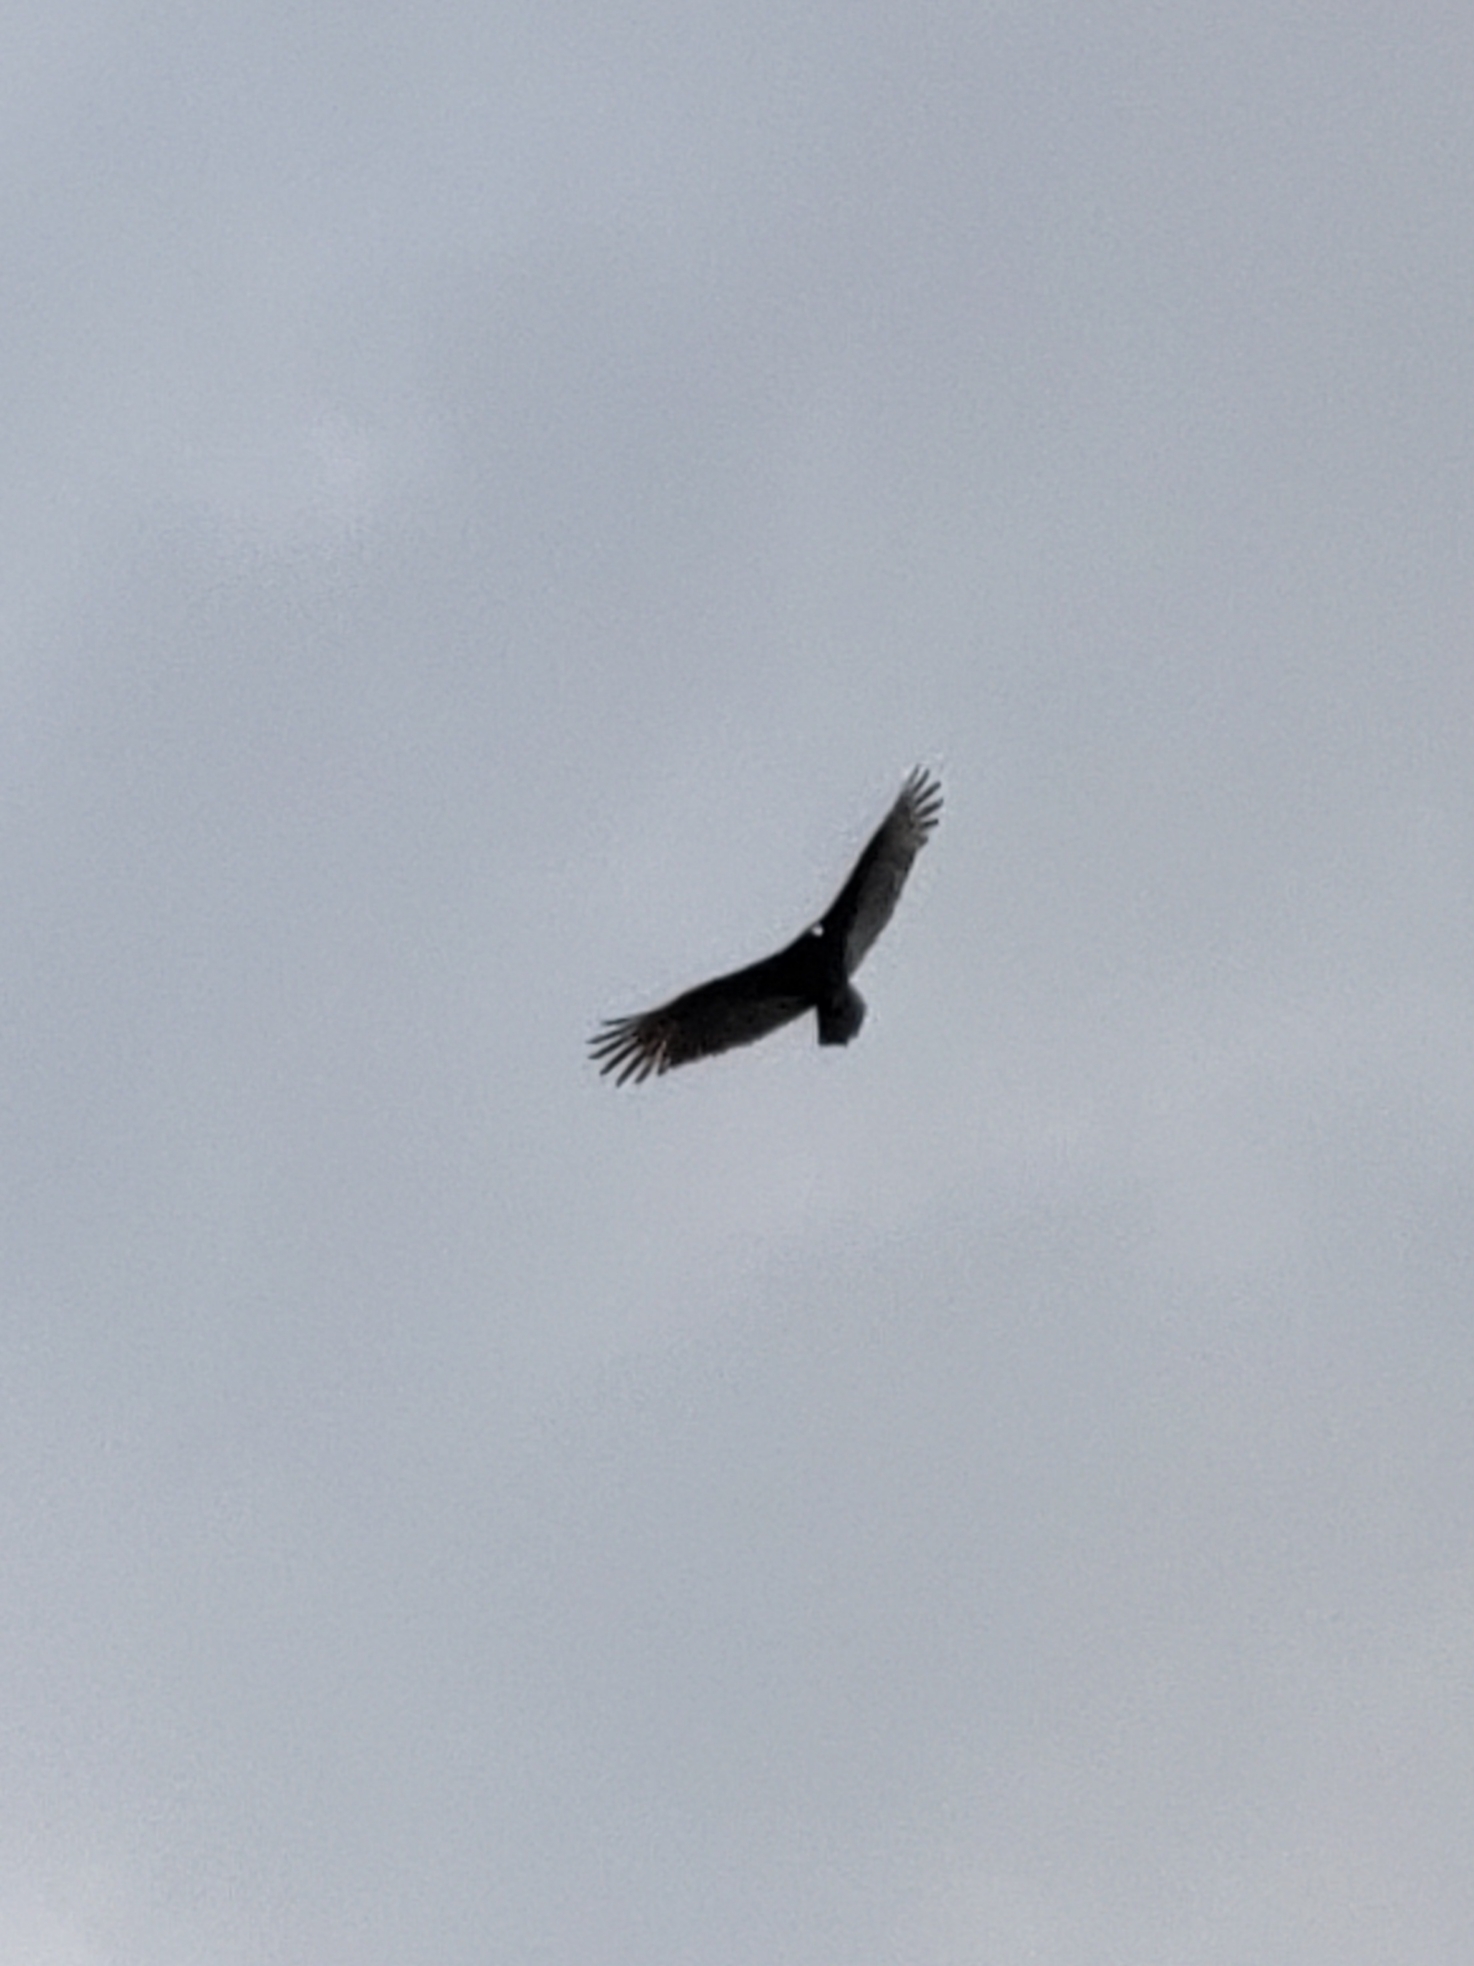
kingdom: Animalia
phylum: Chordata
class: Aves
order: Accipitriformes
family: Cathartidae
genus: Cathartes
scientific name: Cathartes aura
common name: Turkey vulture
